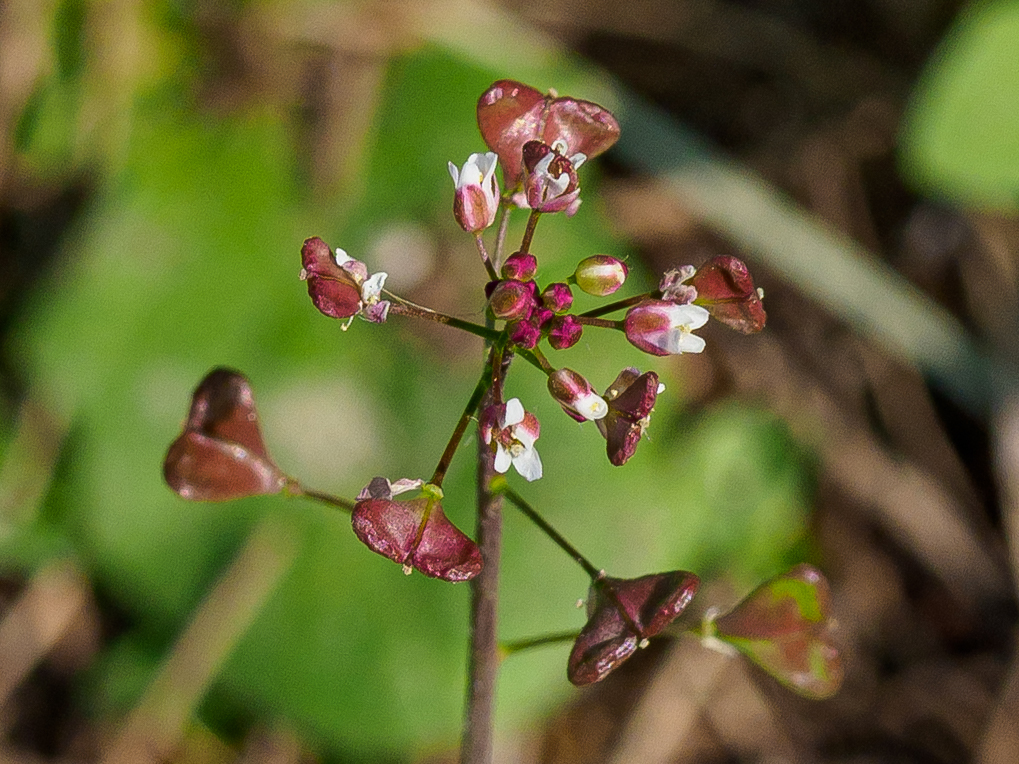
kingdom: Plantae
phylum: Tracheophyta
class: Magnoliopsida
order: Brassicales
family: Brassicaceae
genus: Capsella
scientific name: Capsella rubella
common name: Pink shepherd's-purse
